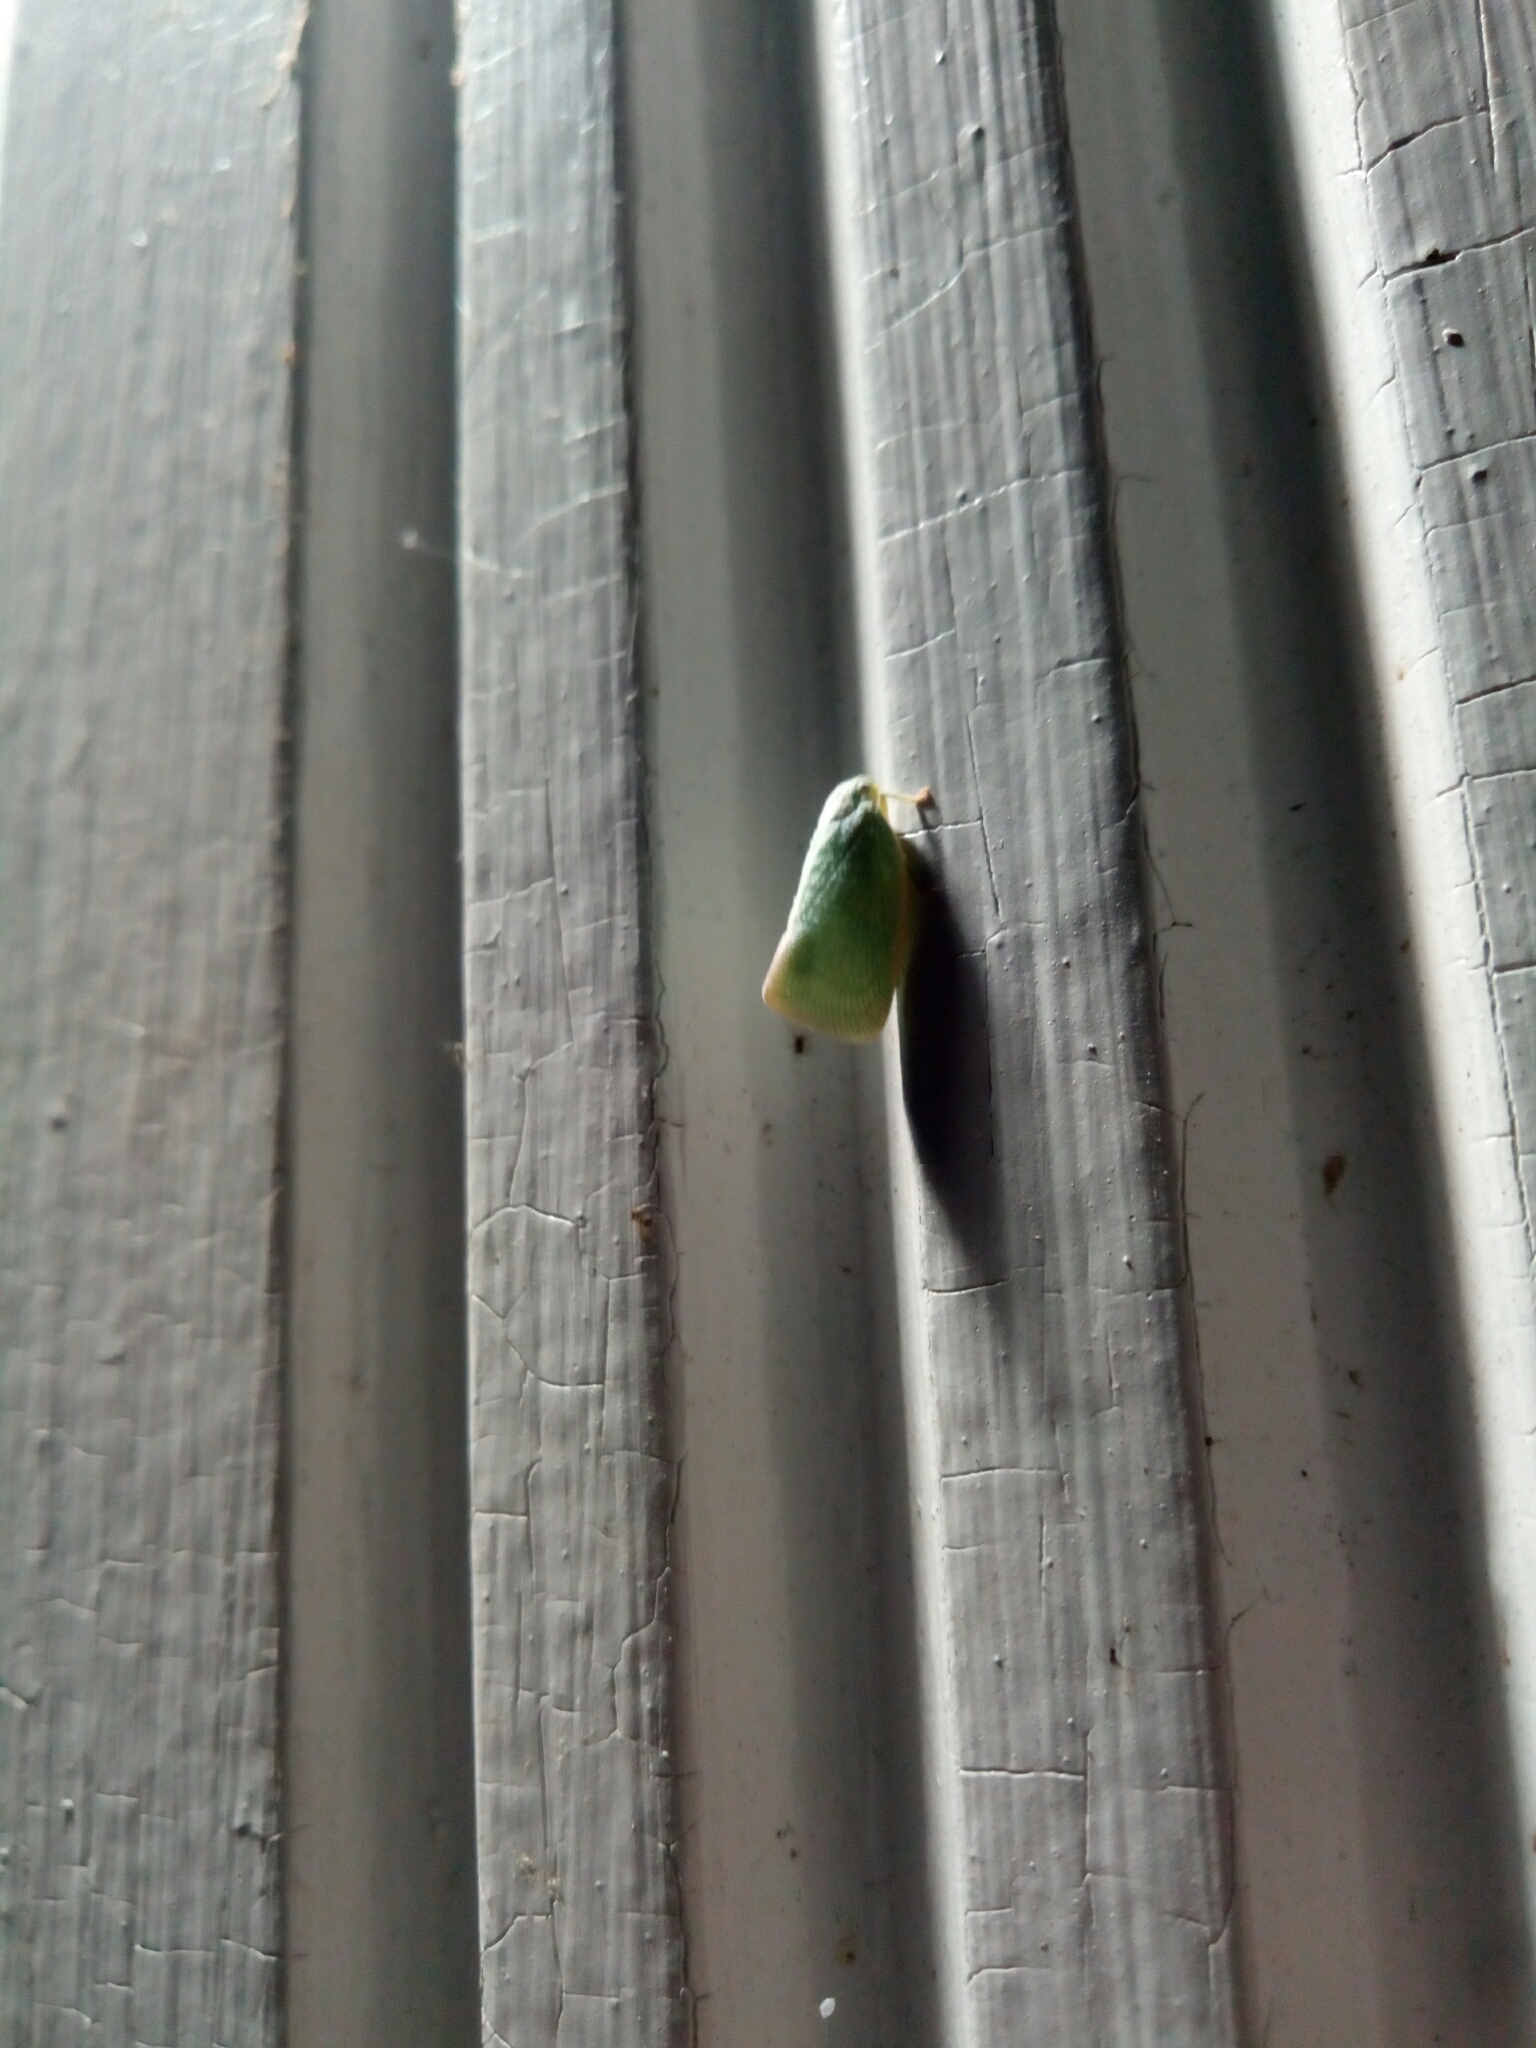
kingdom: Animalia
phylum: Arthropoda
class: Insecta
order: Hemiptera
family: Flatidae
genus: Flatormenis
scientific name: Flatormenis proxima
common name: Northern flatid planthopper
